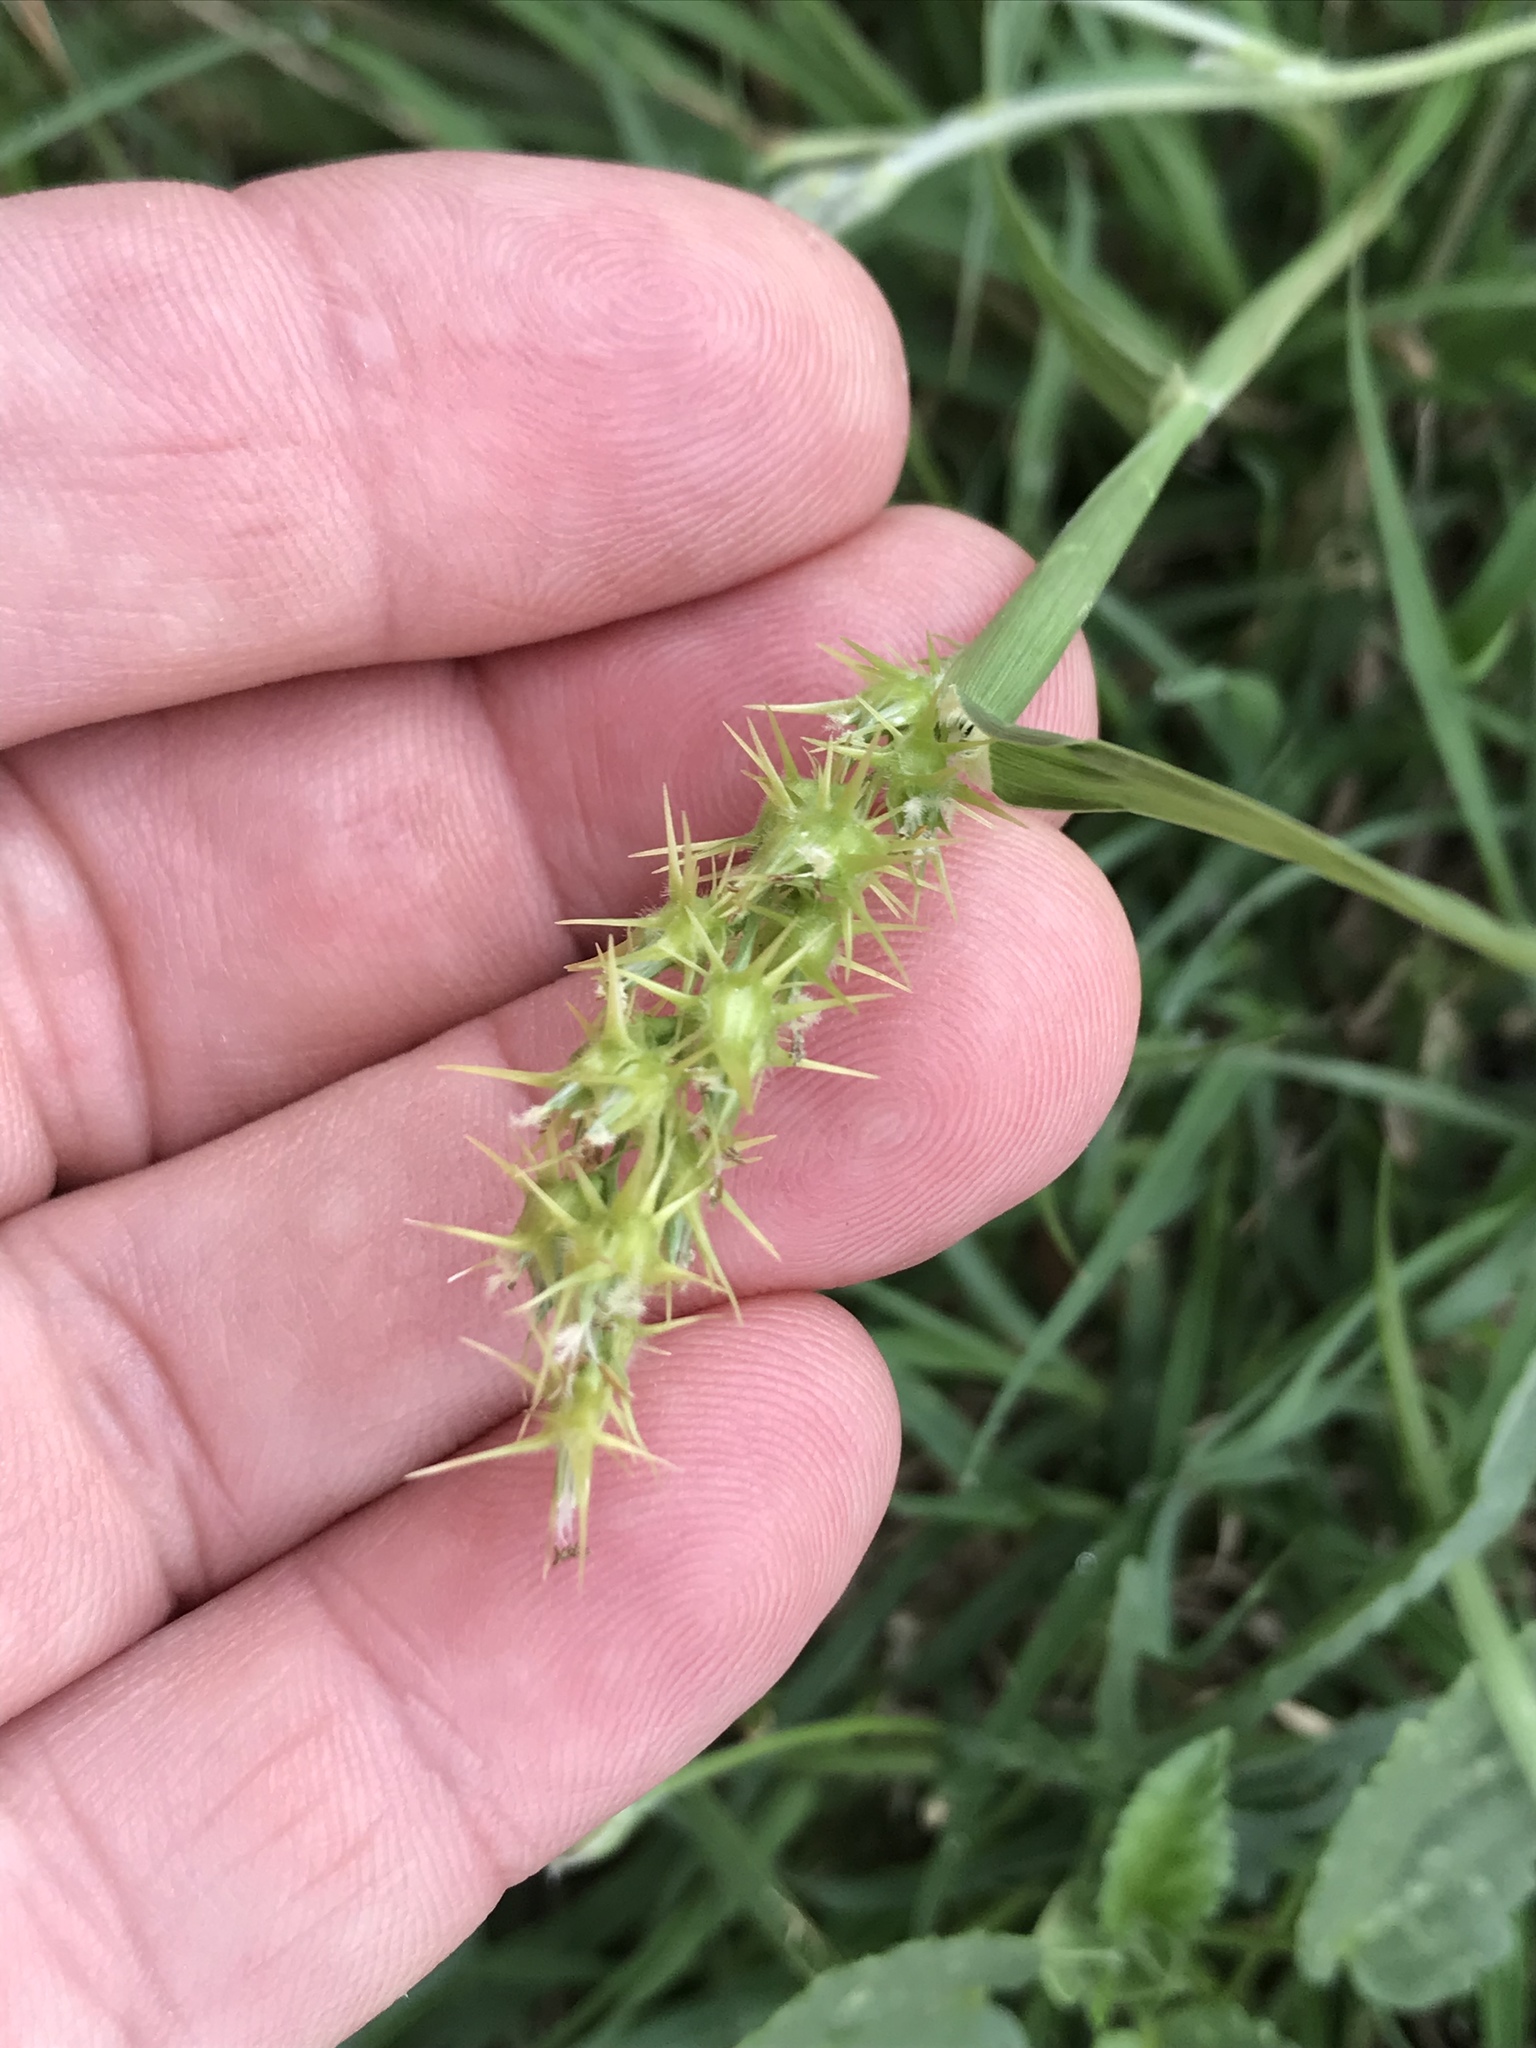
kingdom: Plantae
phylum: Tracheophyta
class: Liliopsida
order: Poales
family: Poaceae
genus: Cenchrus
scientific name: Cenchrus spinifex
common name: Coast sandbur
